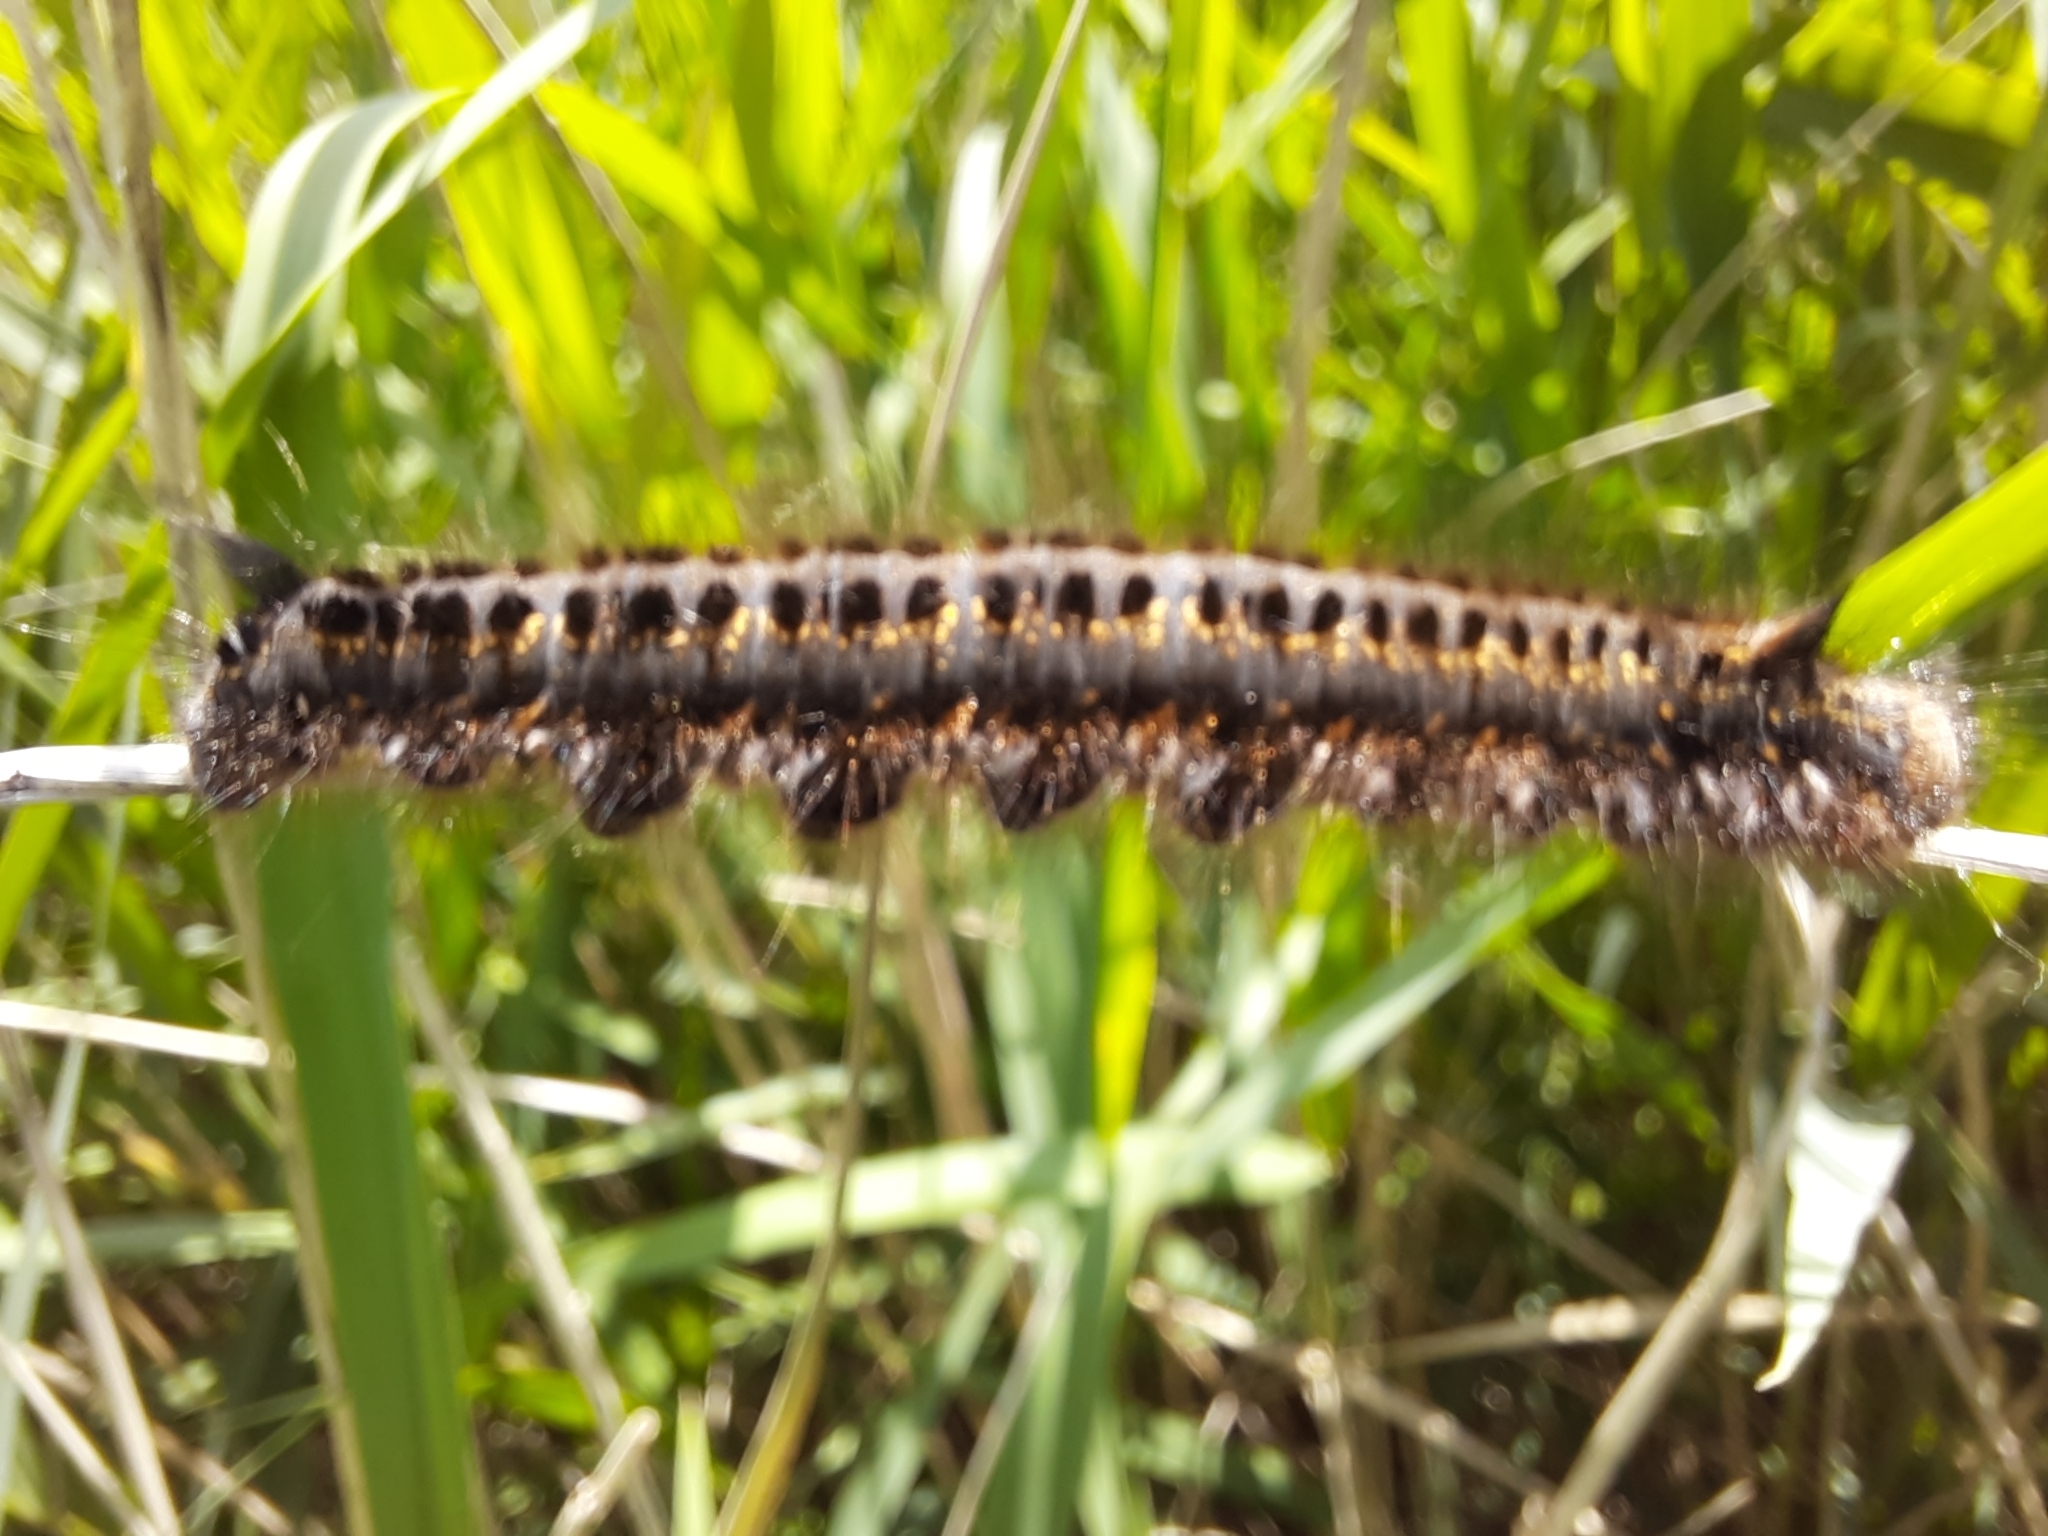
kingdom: Animalia
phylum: Arthropoda
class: Insecta
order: Lepidoptera
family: Lasiocampidae
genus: Euthrix
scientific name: Euthrix potatoria
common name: Drinker
